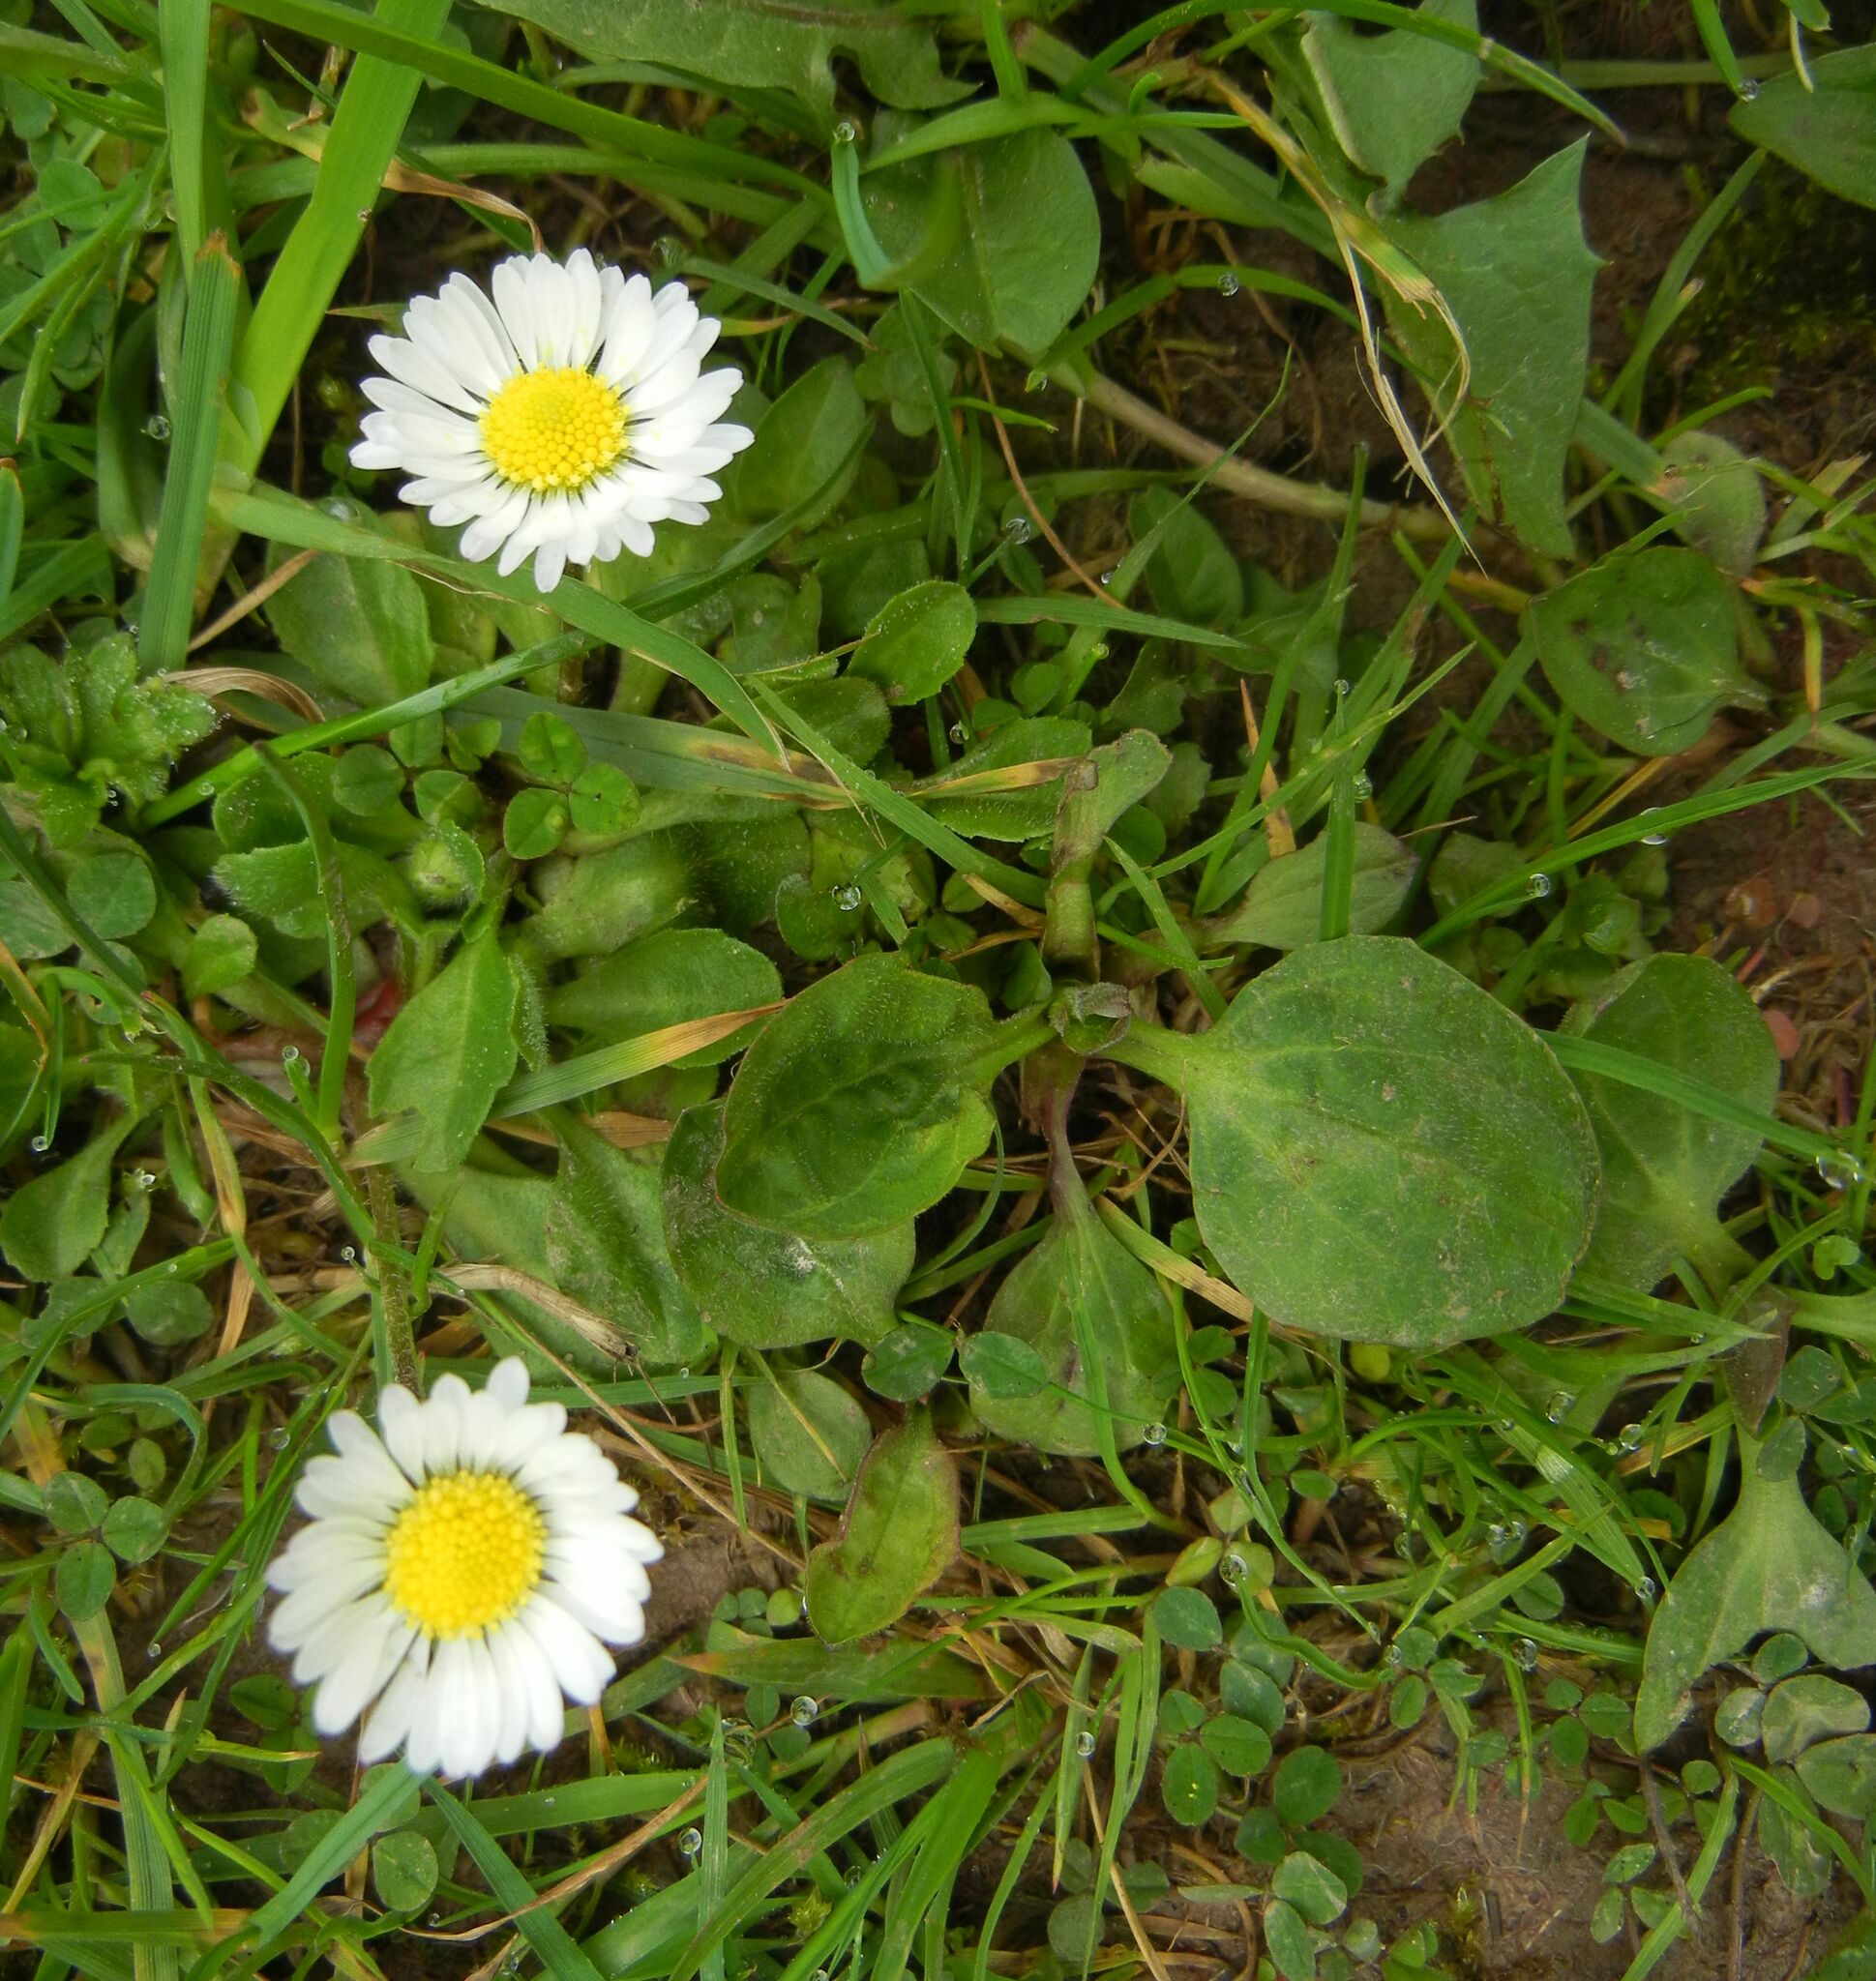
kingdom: Plantae
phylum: Tracheophyta
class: Magnoliopsida
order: Asterales
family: Asteraceae
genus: Bellis
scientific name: Bellis perennis
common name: Lawndaisy
